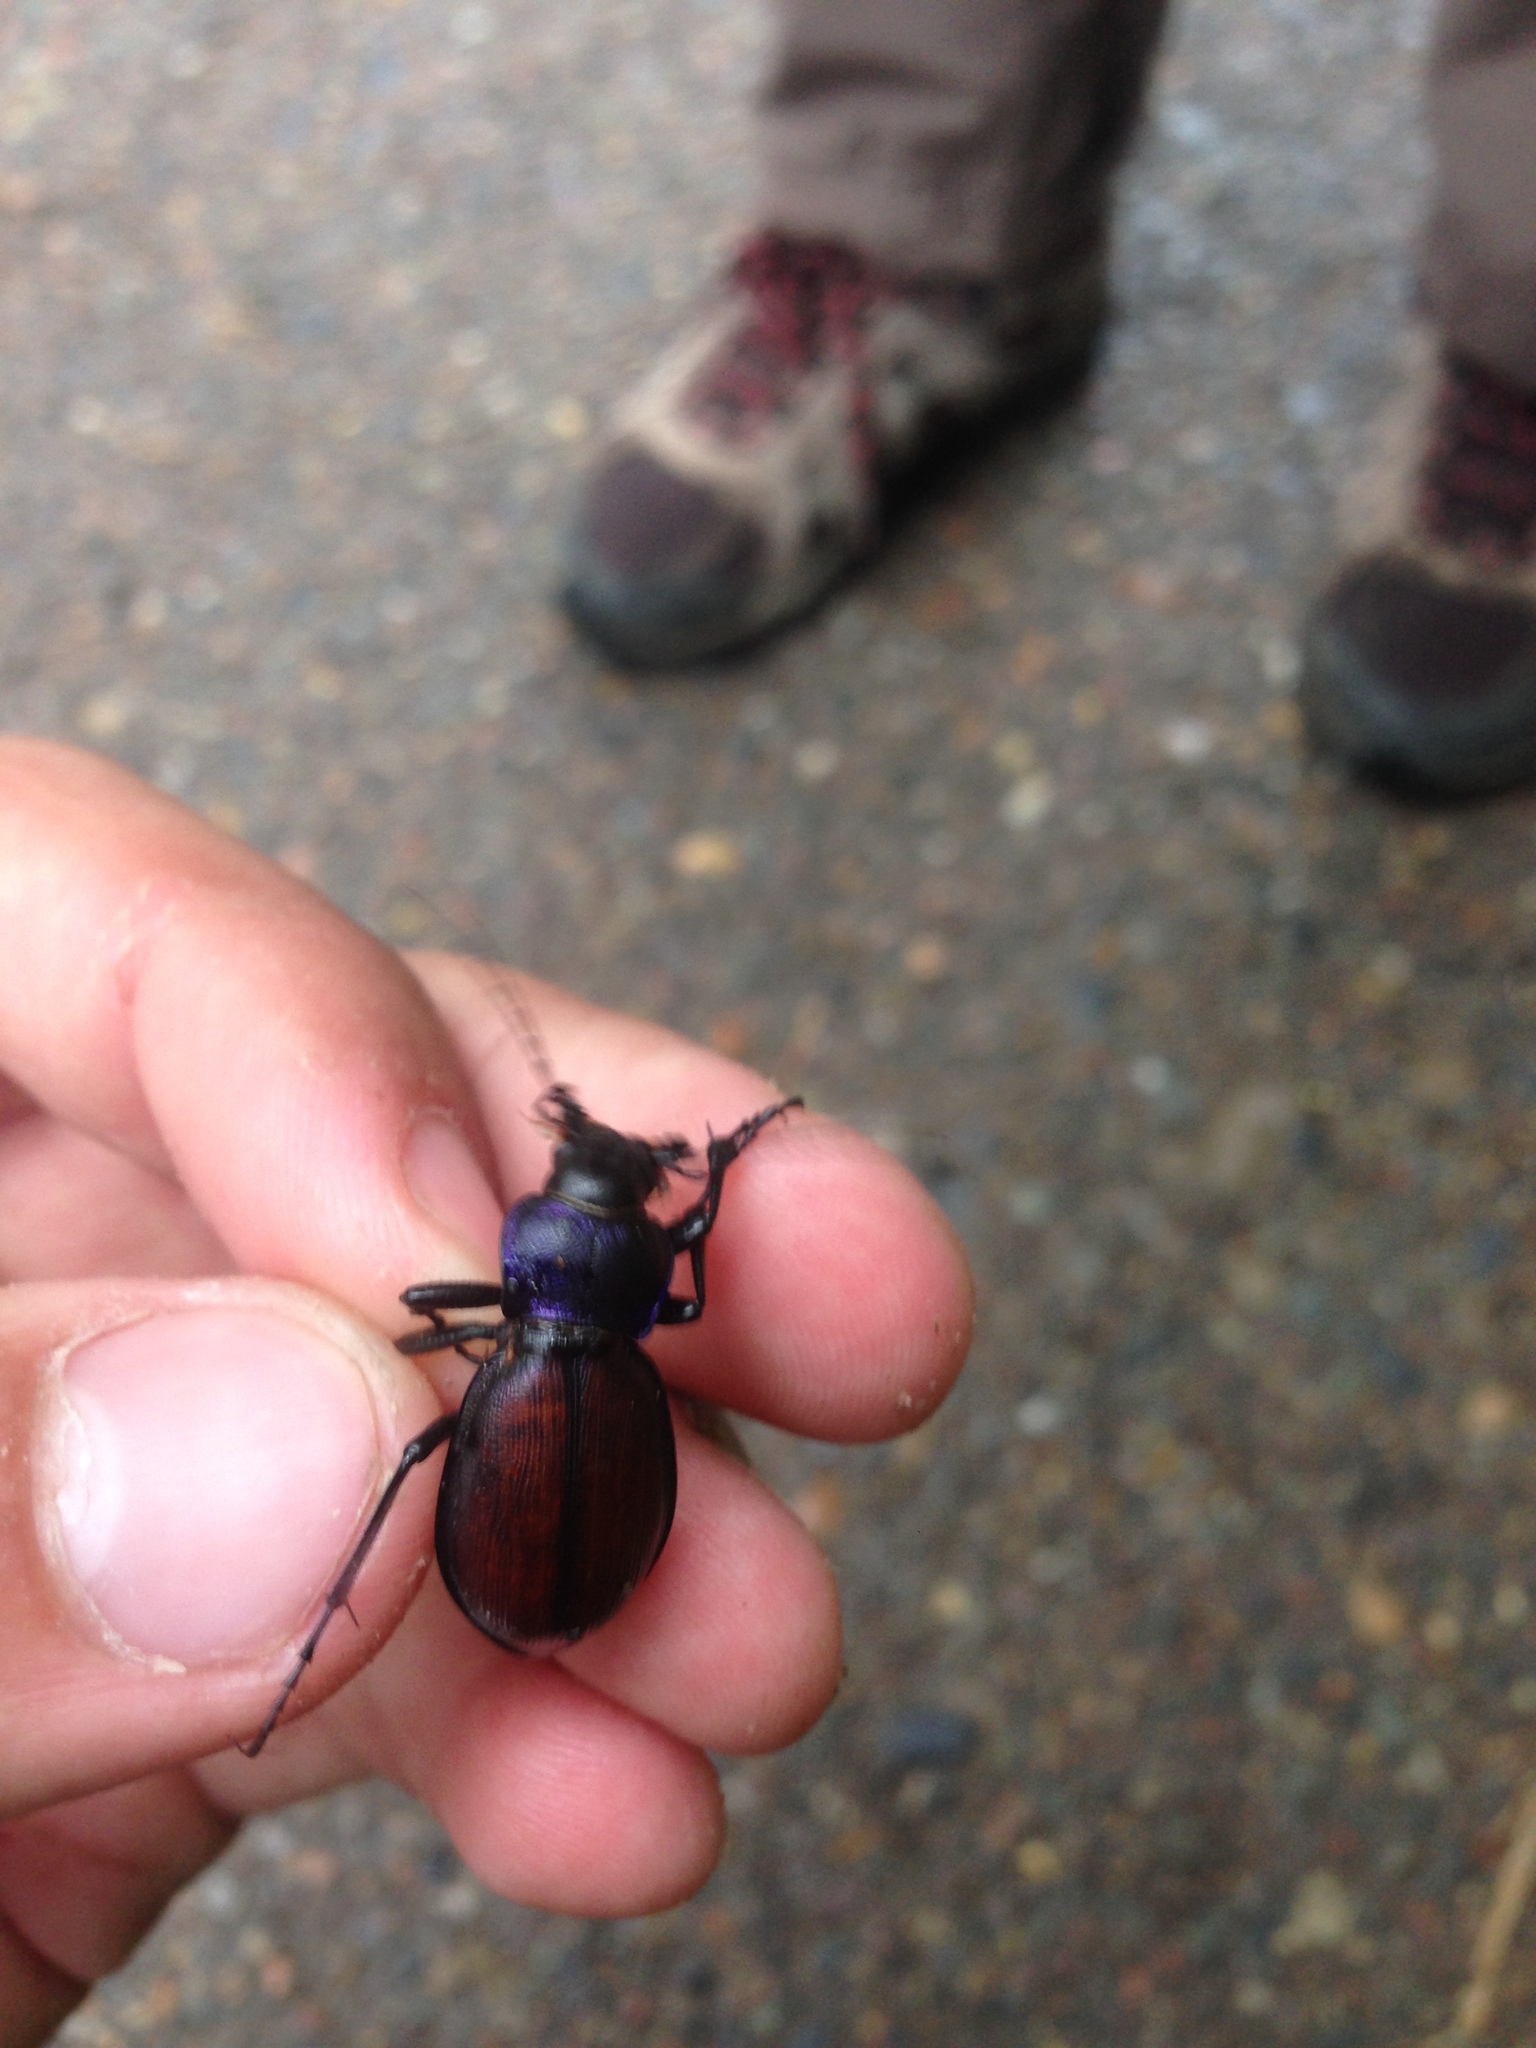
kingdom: Animalia
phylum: Arthropoda
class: Insecta
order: Coleoptera
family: Carabidae
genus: Carabus
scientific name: Carabus schoenherri
